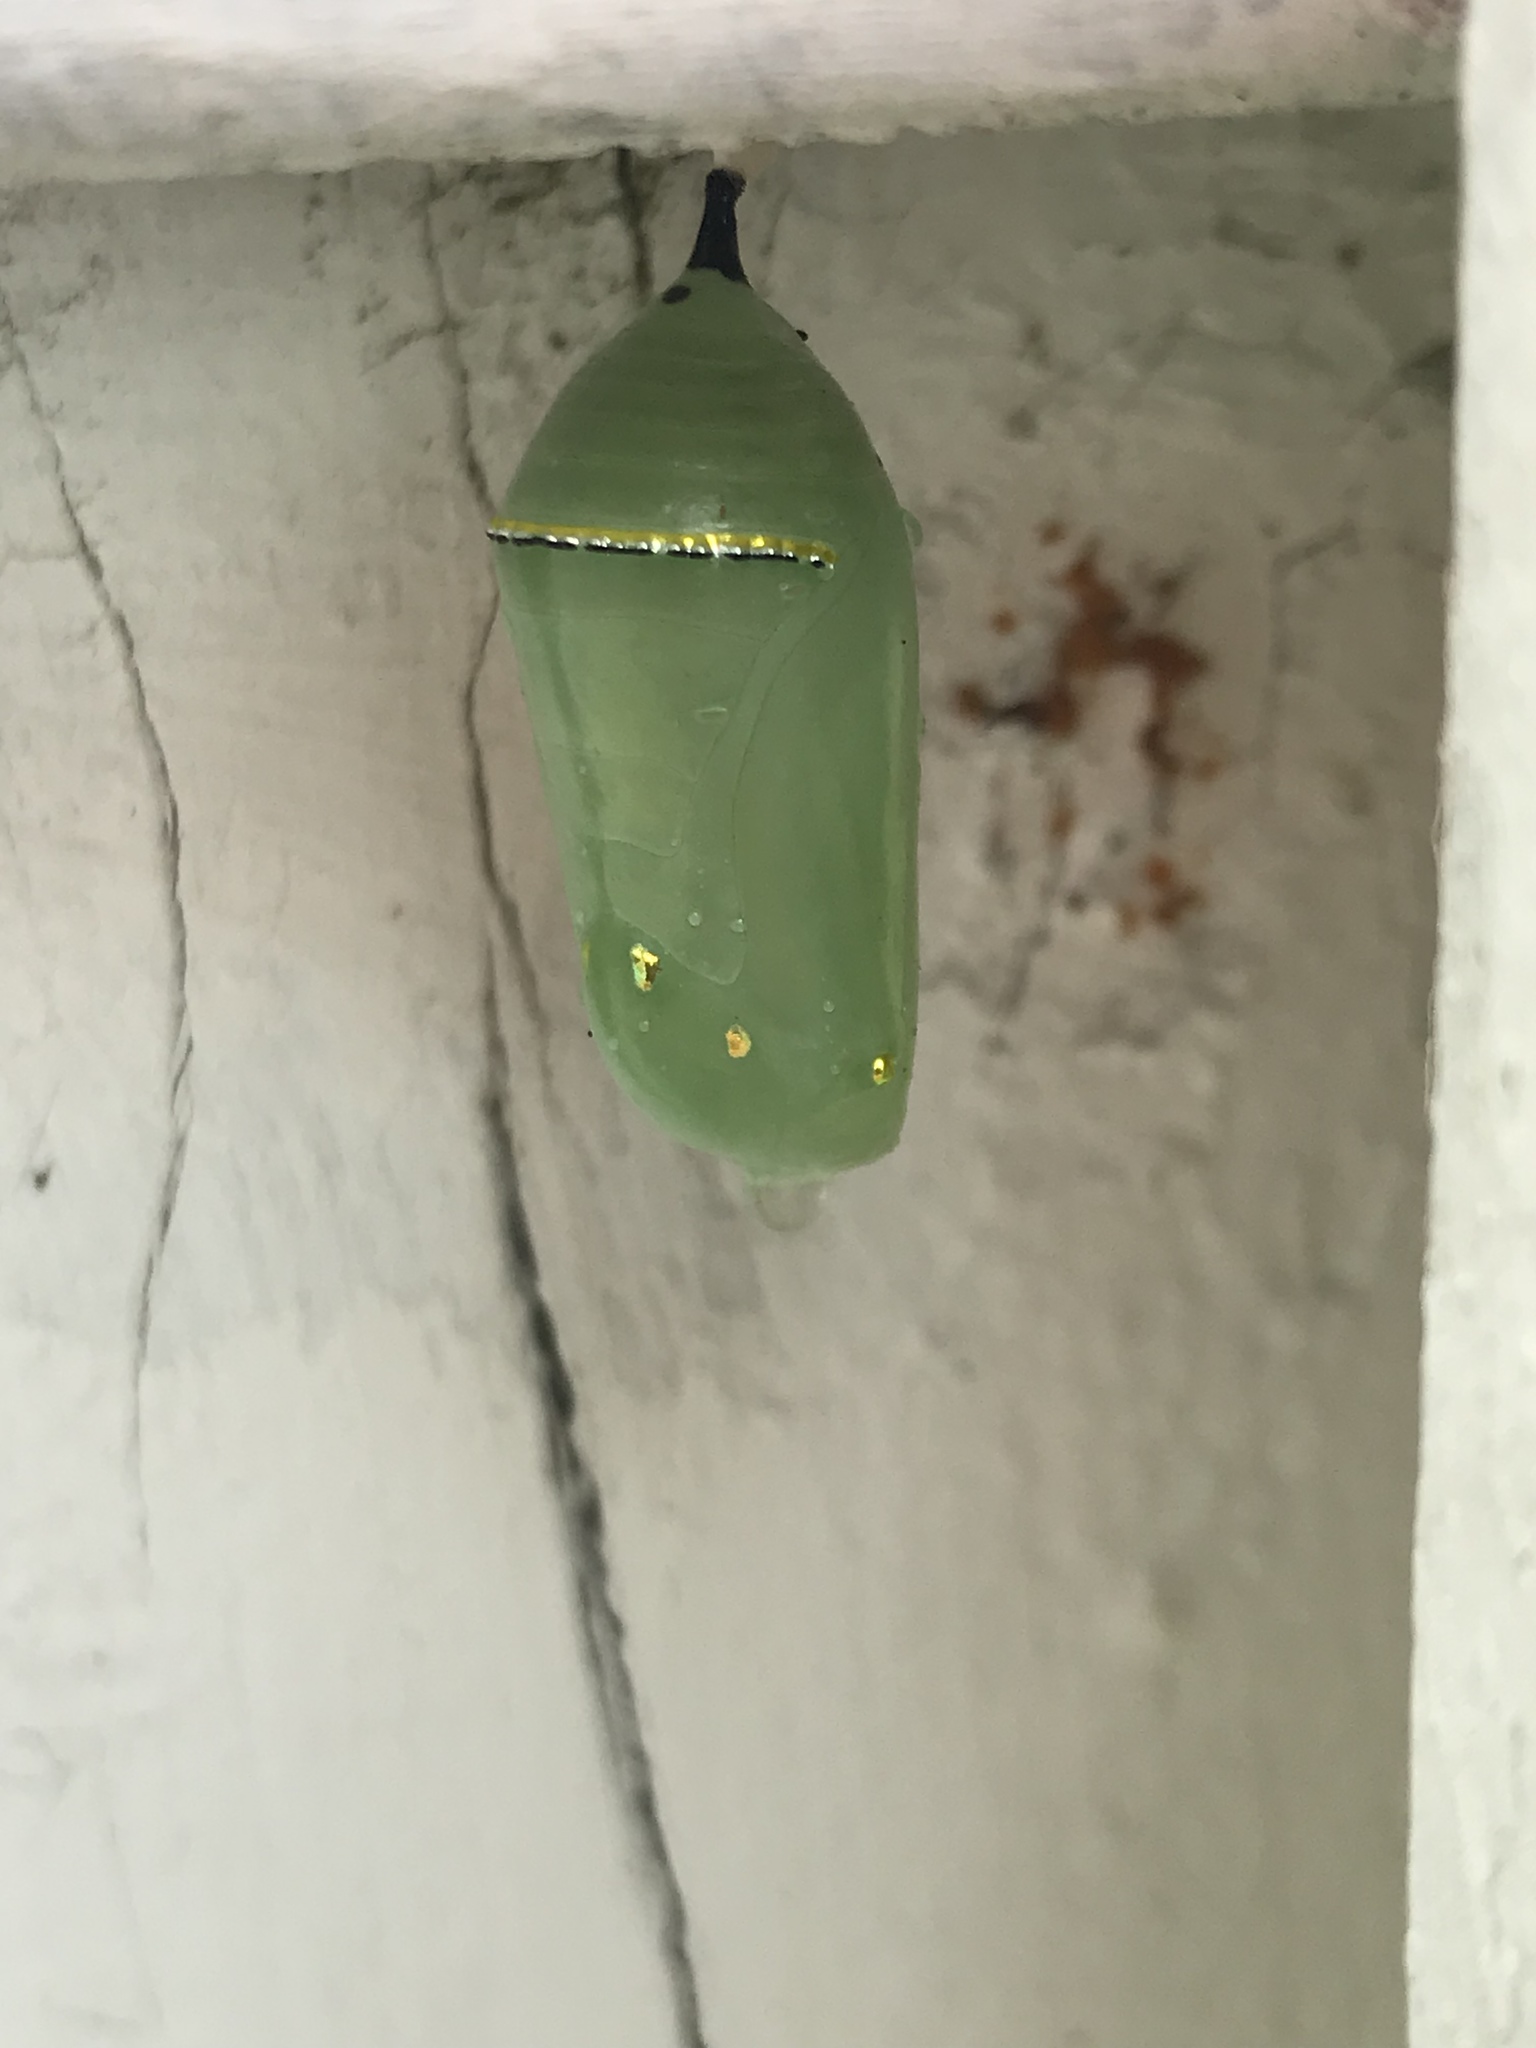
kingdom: Animalia
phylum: Arthropoda
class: Insecta
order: Lepidoptera
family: Nymphalidae
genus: Danaus
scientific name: Danaus plexippus
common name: Monarch
